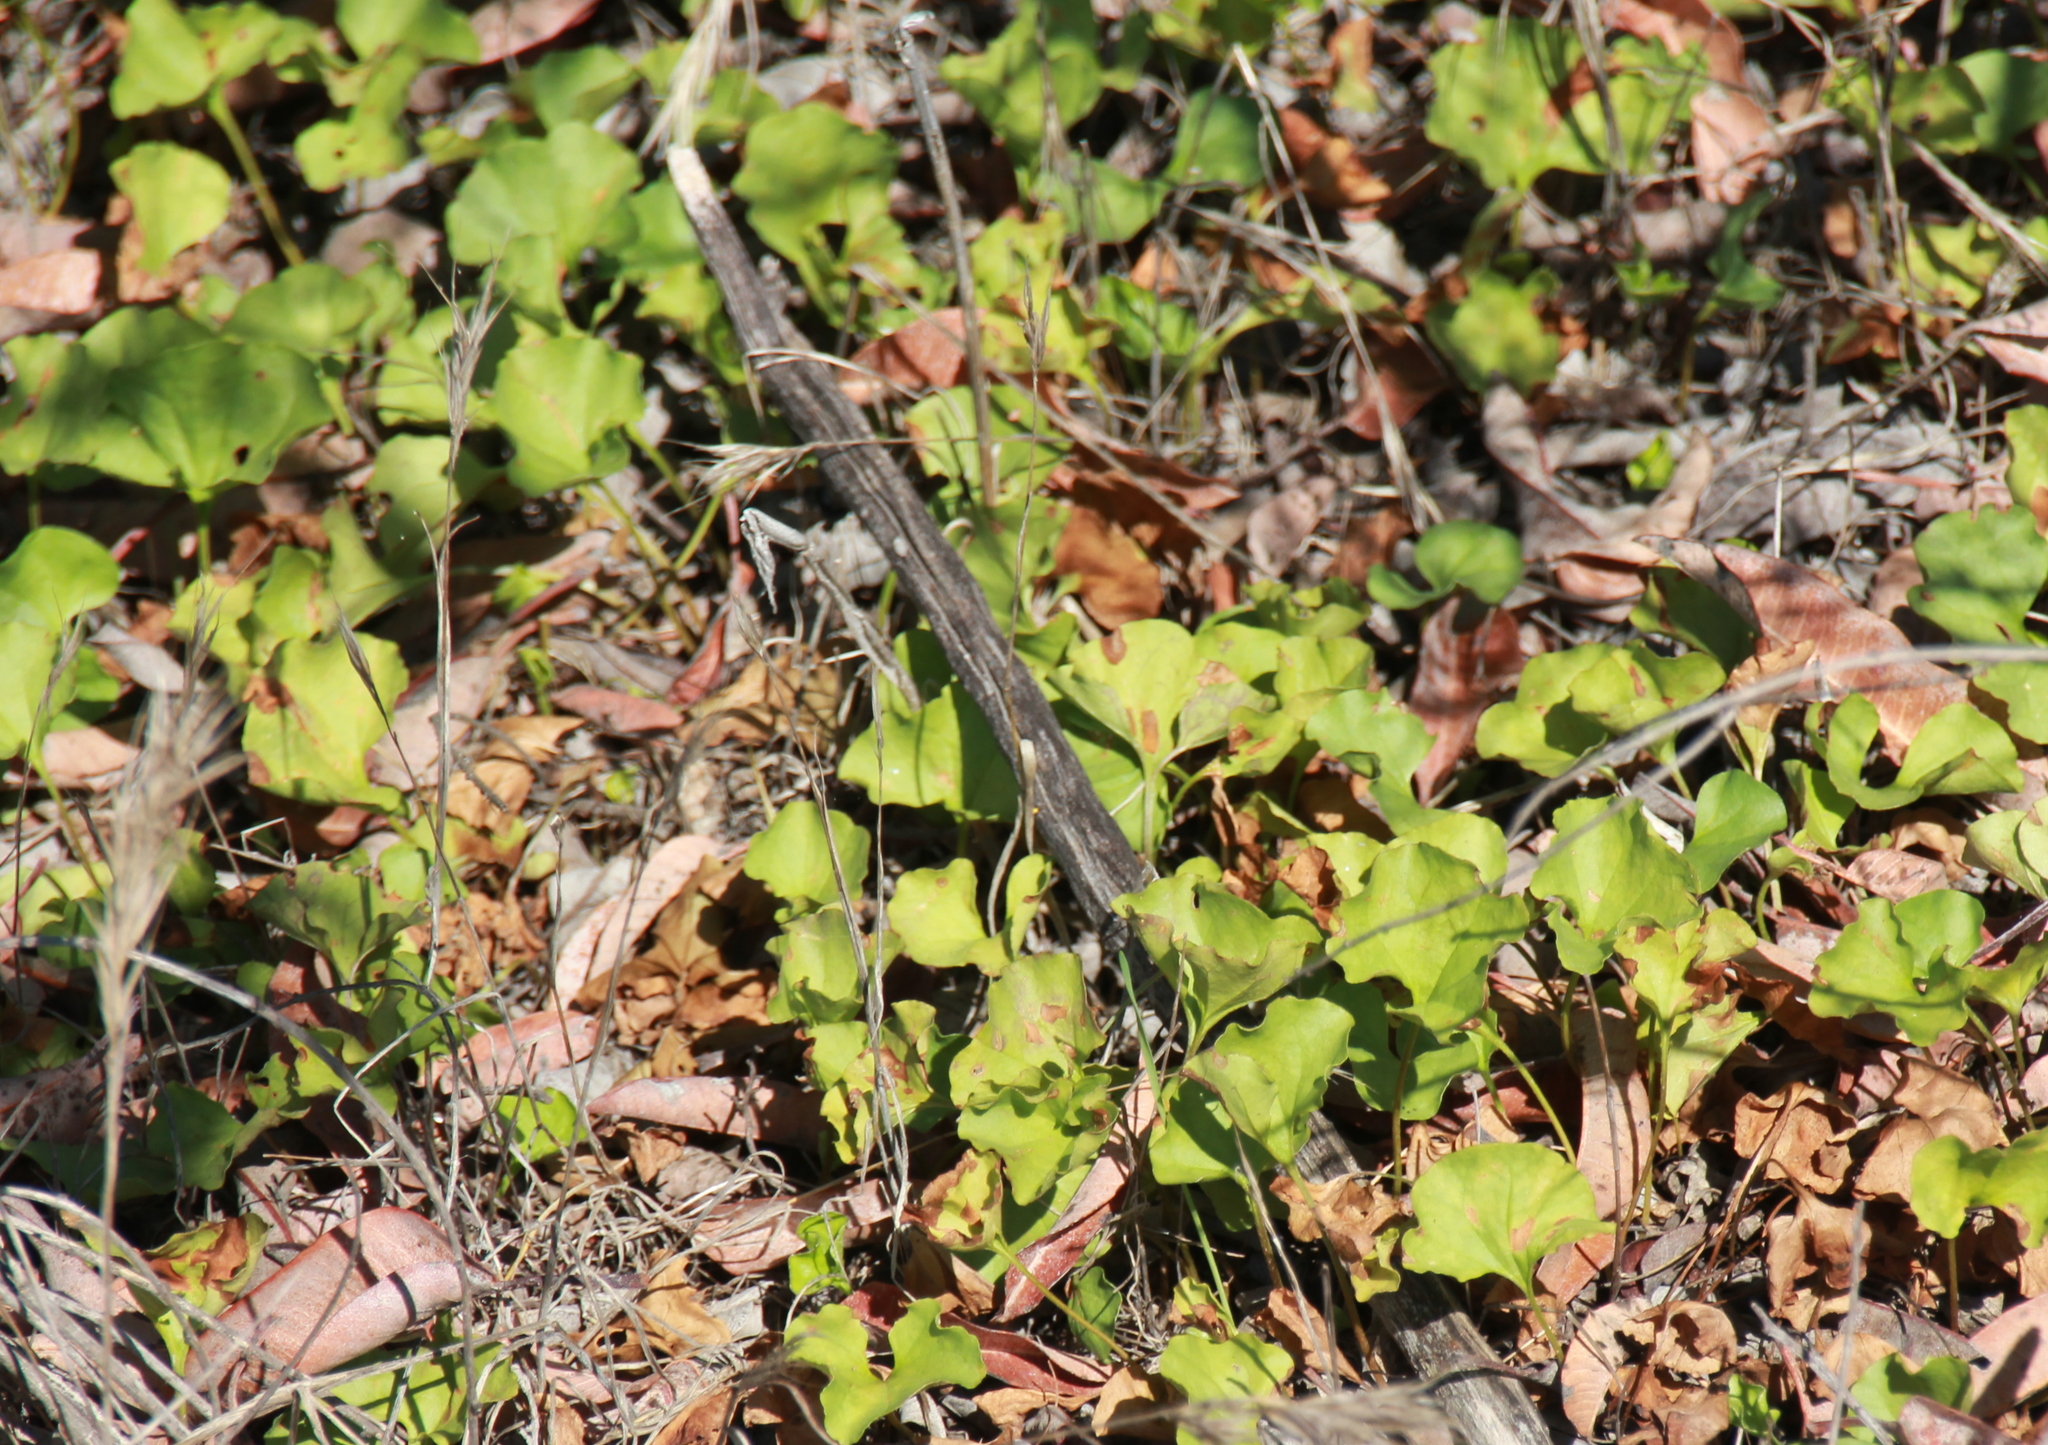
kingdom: Plantae
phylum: Tracheophyta
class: Magnoliopsida
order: Solanales
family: Convolvulaceae
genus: Dichondra
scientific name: Dichondra occidentalis
